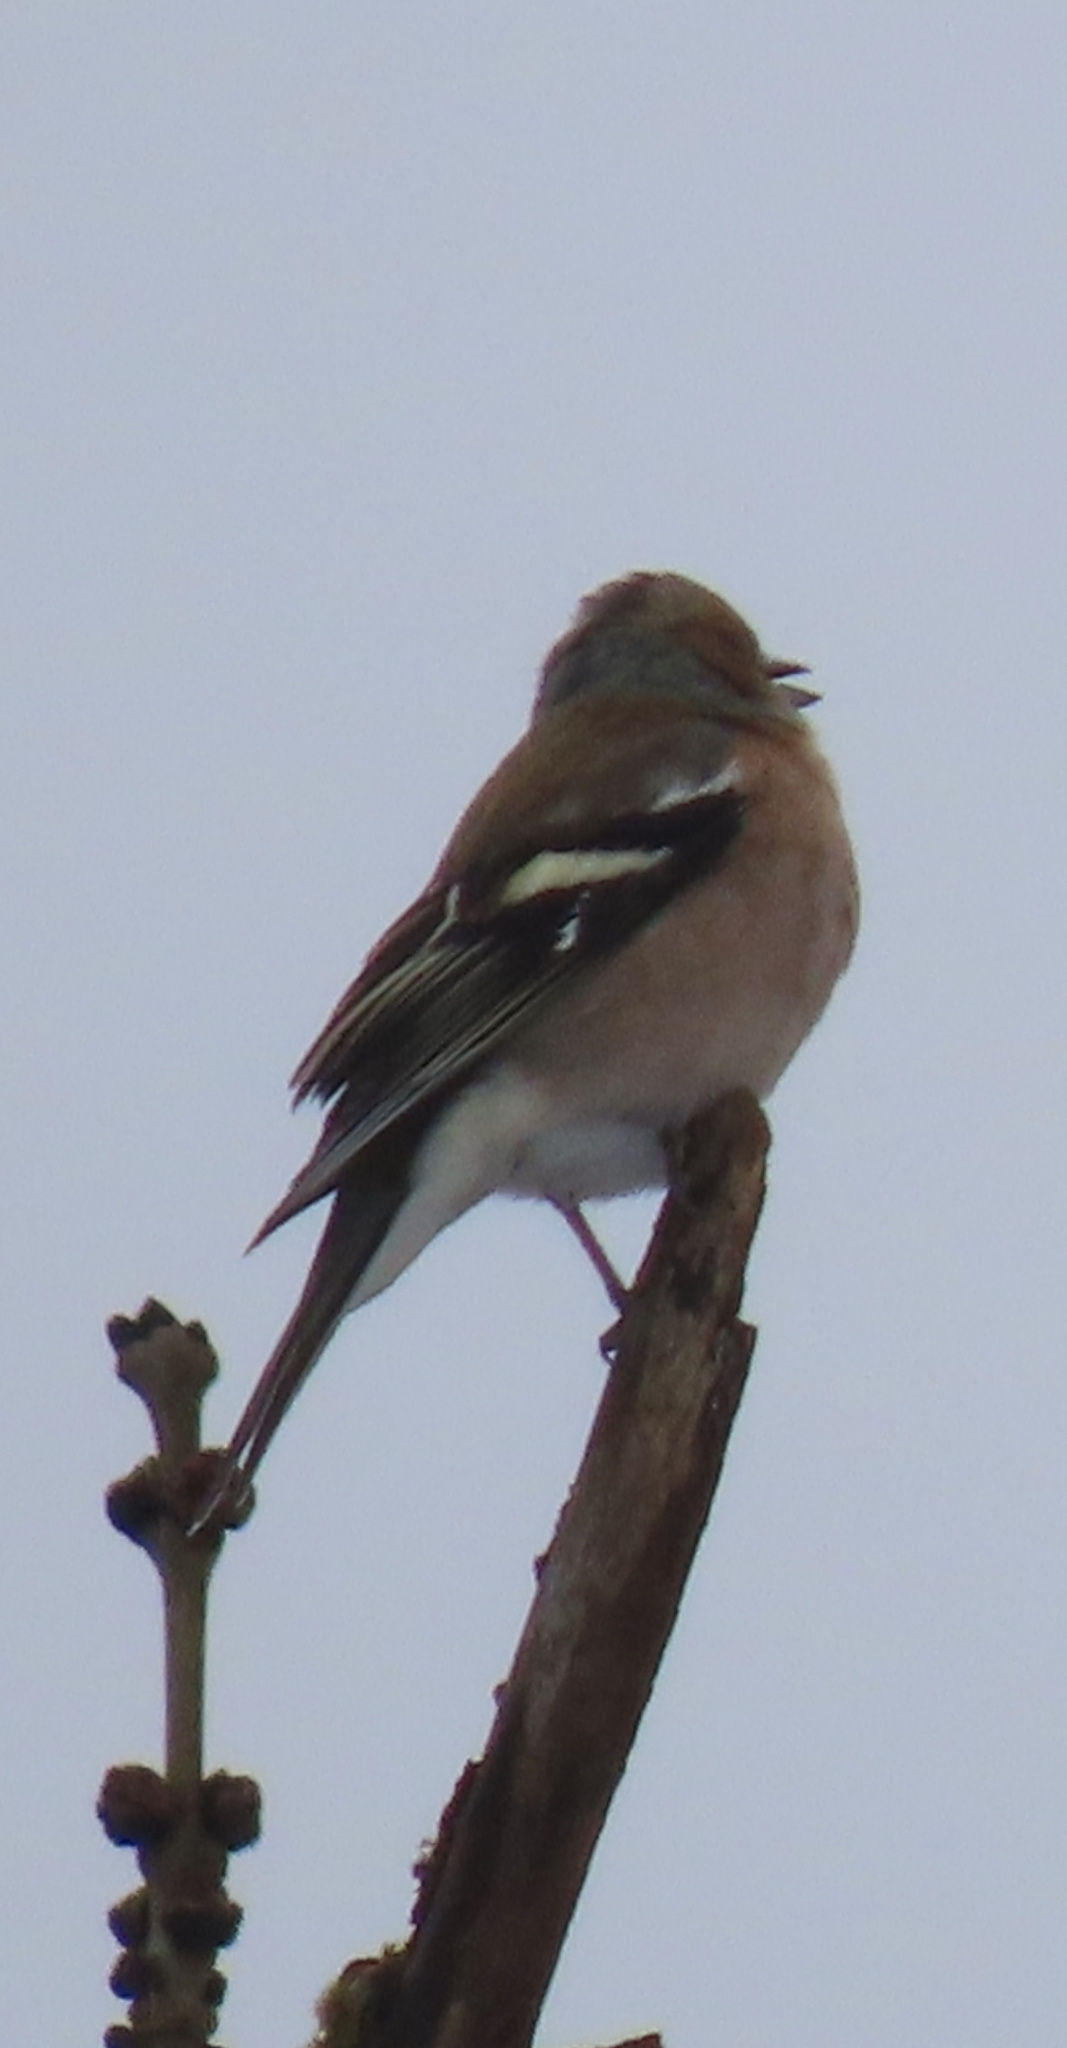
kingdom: Animalia
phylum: Chordata
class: Aves
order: Passeriformes
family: Fringillidae
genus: Fringilla
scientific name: Fringilla coelebs
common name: Common chaffinch
